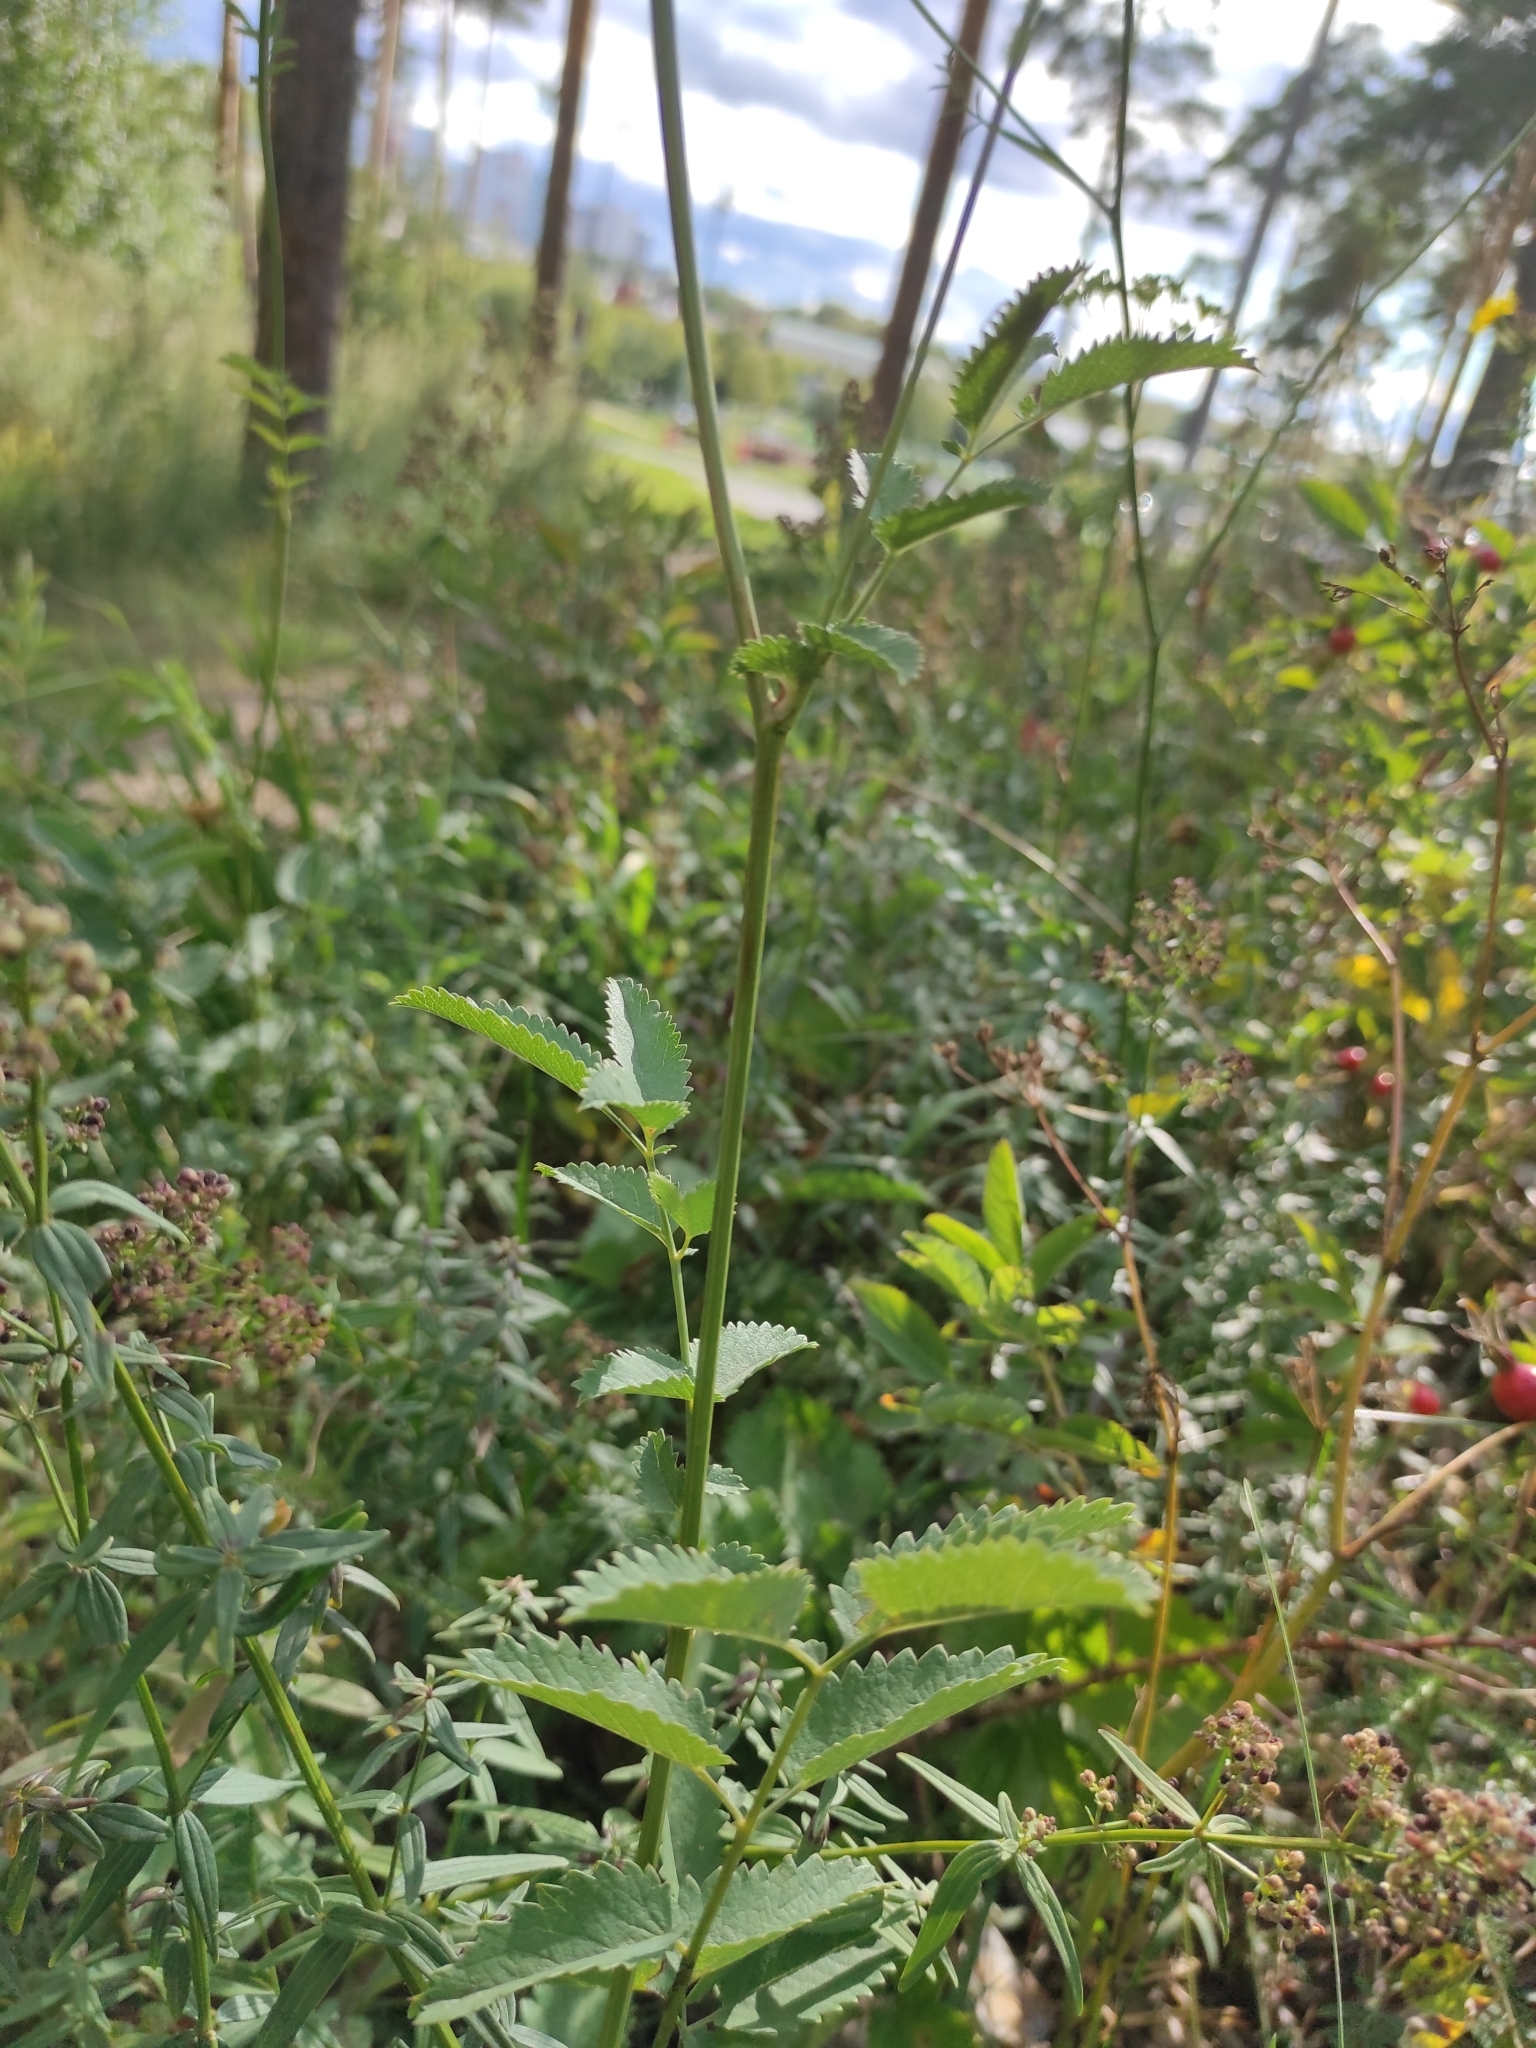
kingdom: Plantae
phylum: Tracheophyta
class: Magnoliopsida
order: Rosales
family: Rosaceae
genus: Sanguisorba
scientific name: Sanguisorba officinalis
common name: Great burnet
